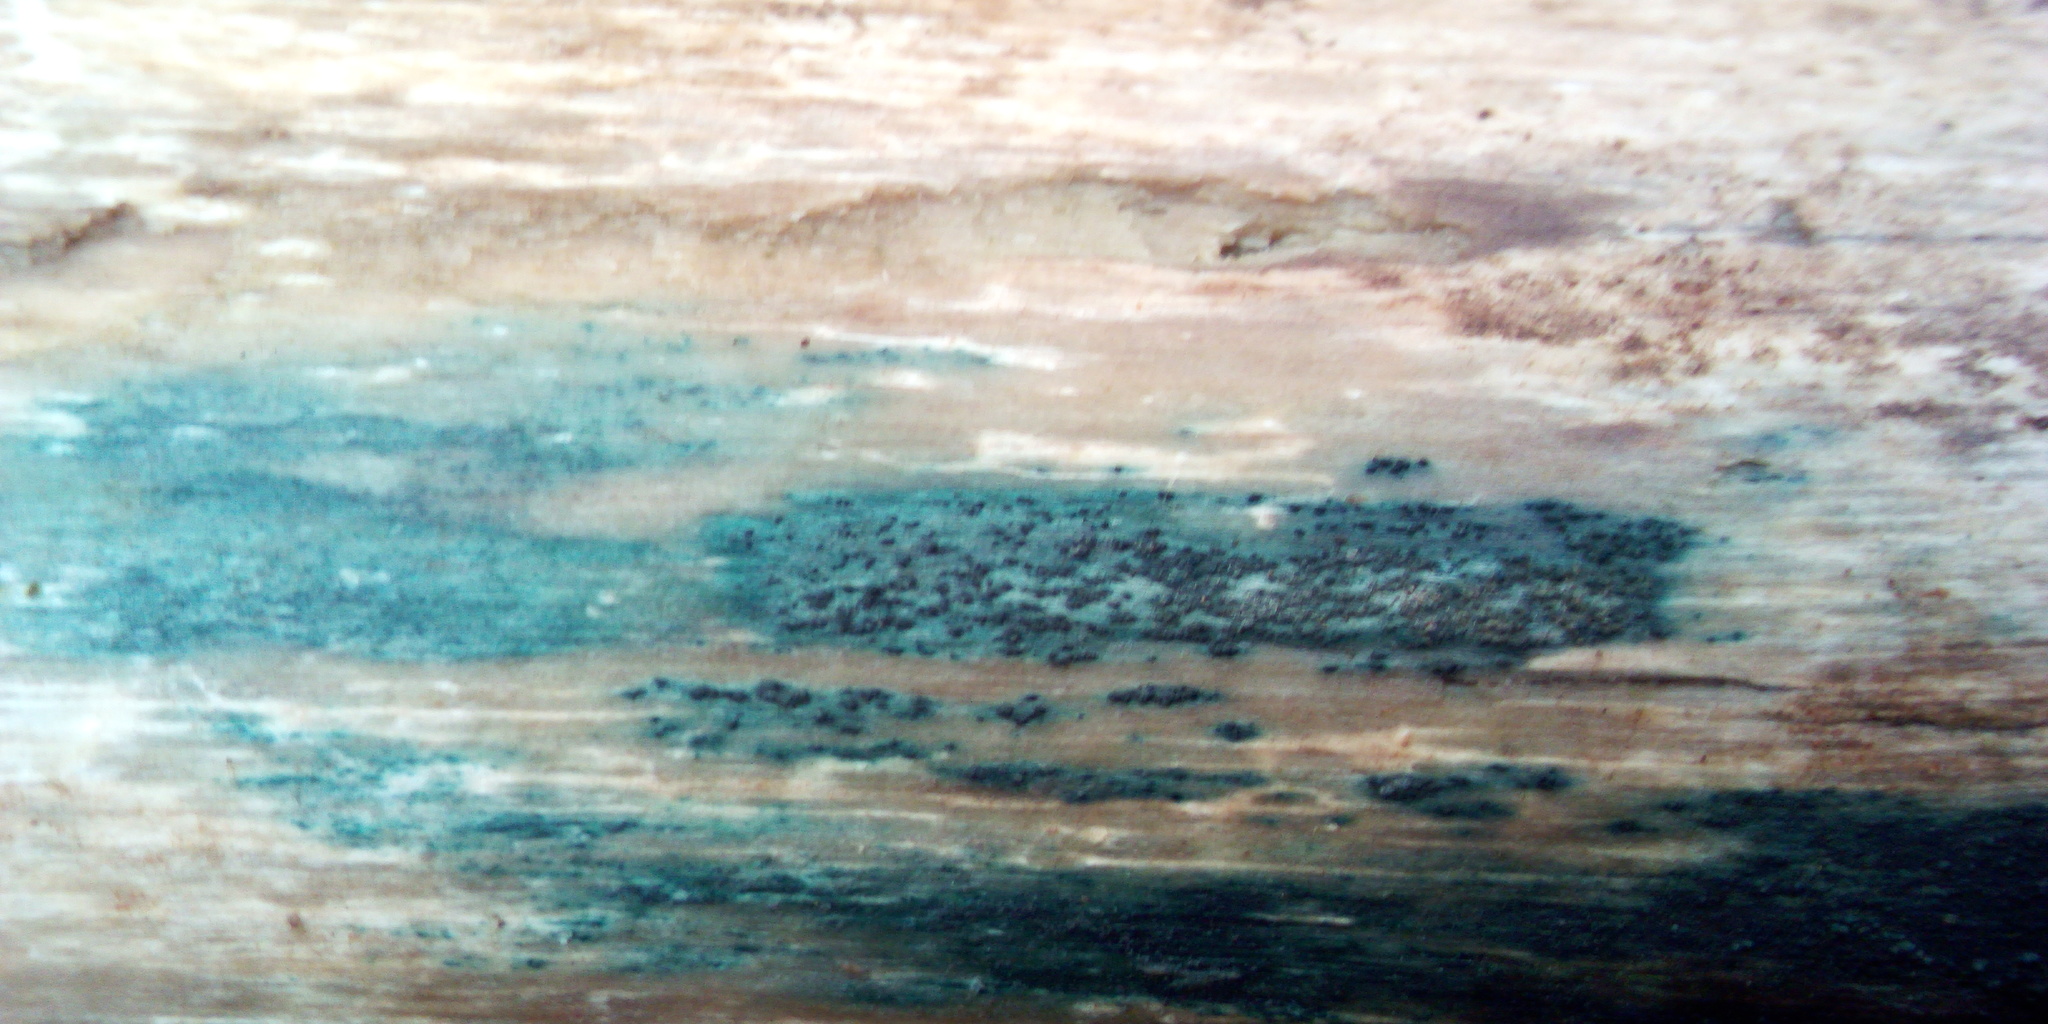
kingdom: Fungi
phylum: Ascomycota
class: Leotiomycetes
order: Helotiales
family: Chlorociboriaceae
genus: Chlorociboria
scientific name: Chlorociboria
